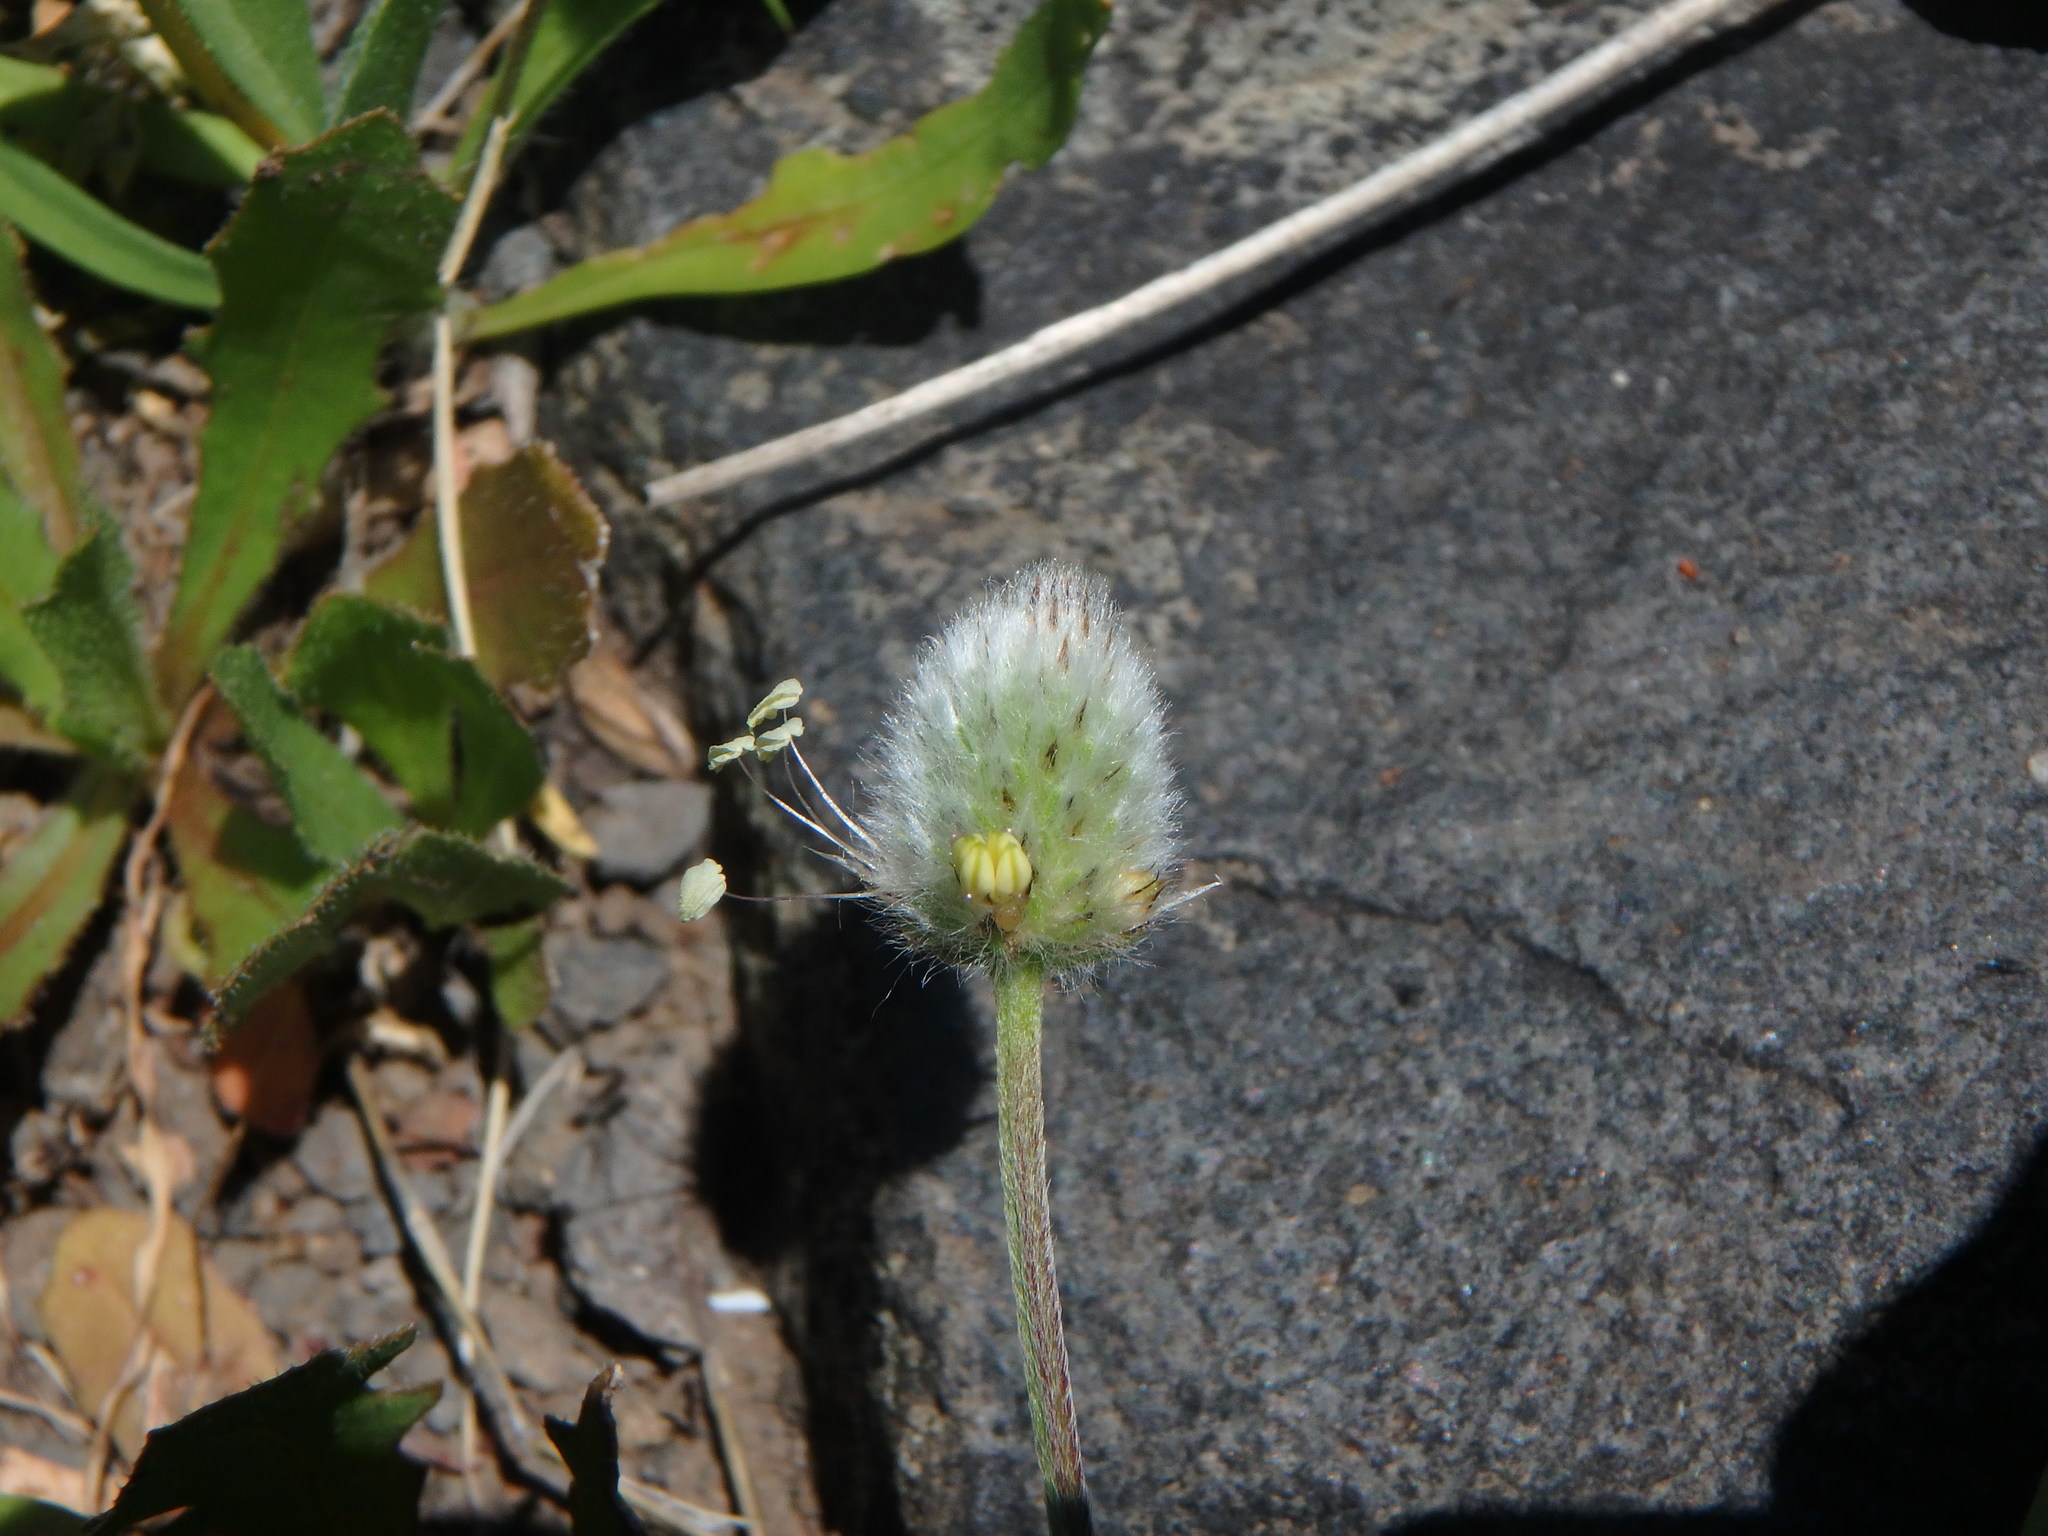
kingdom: Plantae
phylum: Tracheophyta
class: Magnoliopsida
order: Lamiales
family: Plantaginaceae
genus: Plantago
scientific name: Plantago lagopus
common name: Hare-foot plantain
